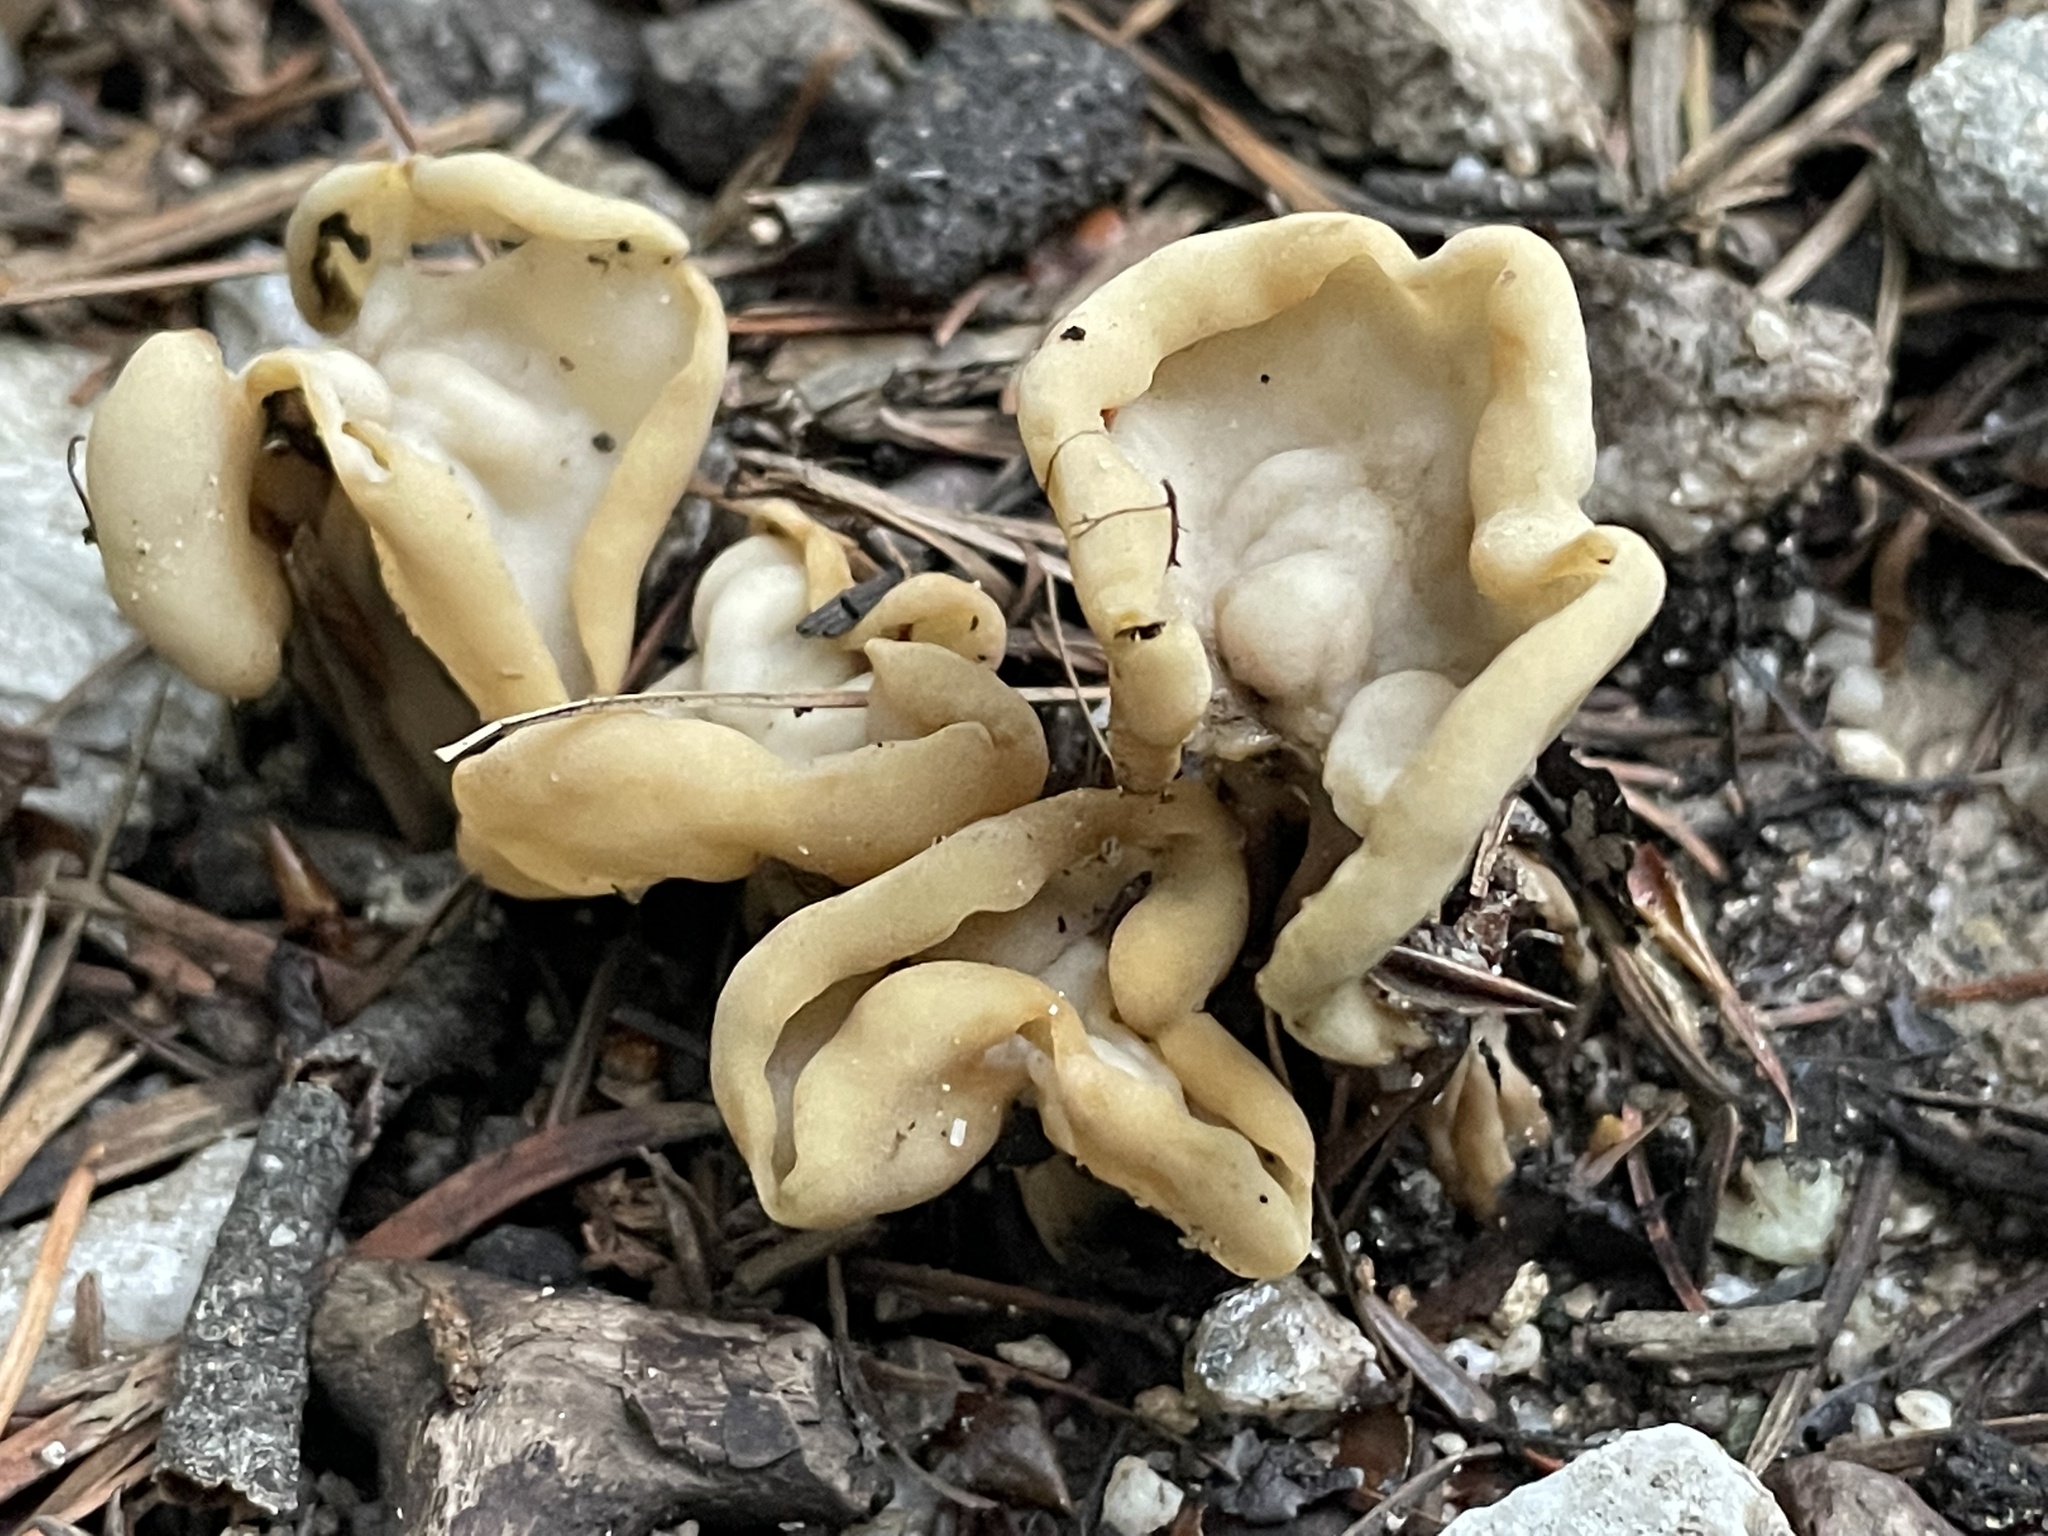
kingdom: Fungi
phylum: Ascomycota
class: Pezizomycetes
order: Pezizales
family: Helvellaceae
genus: Helvella
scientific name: Helvella crispa
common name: White saddle
